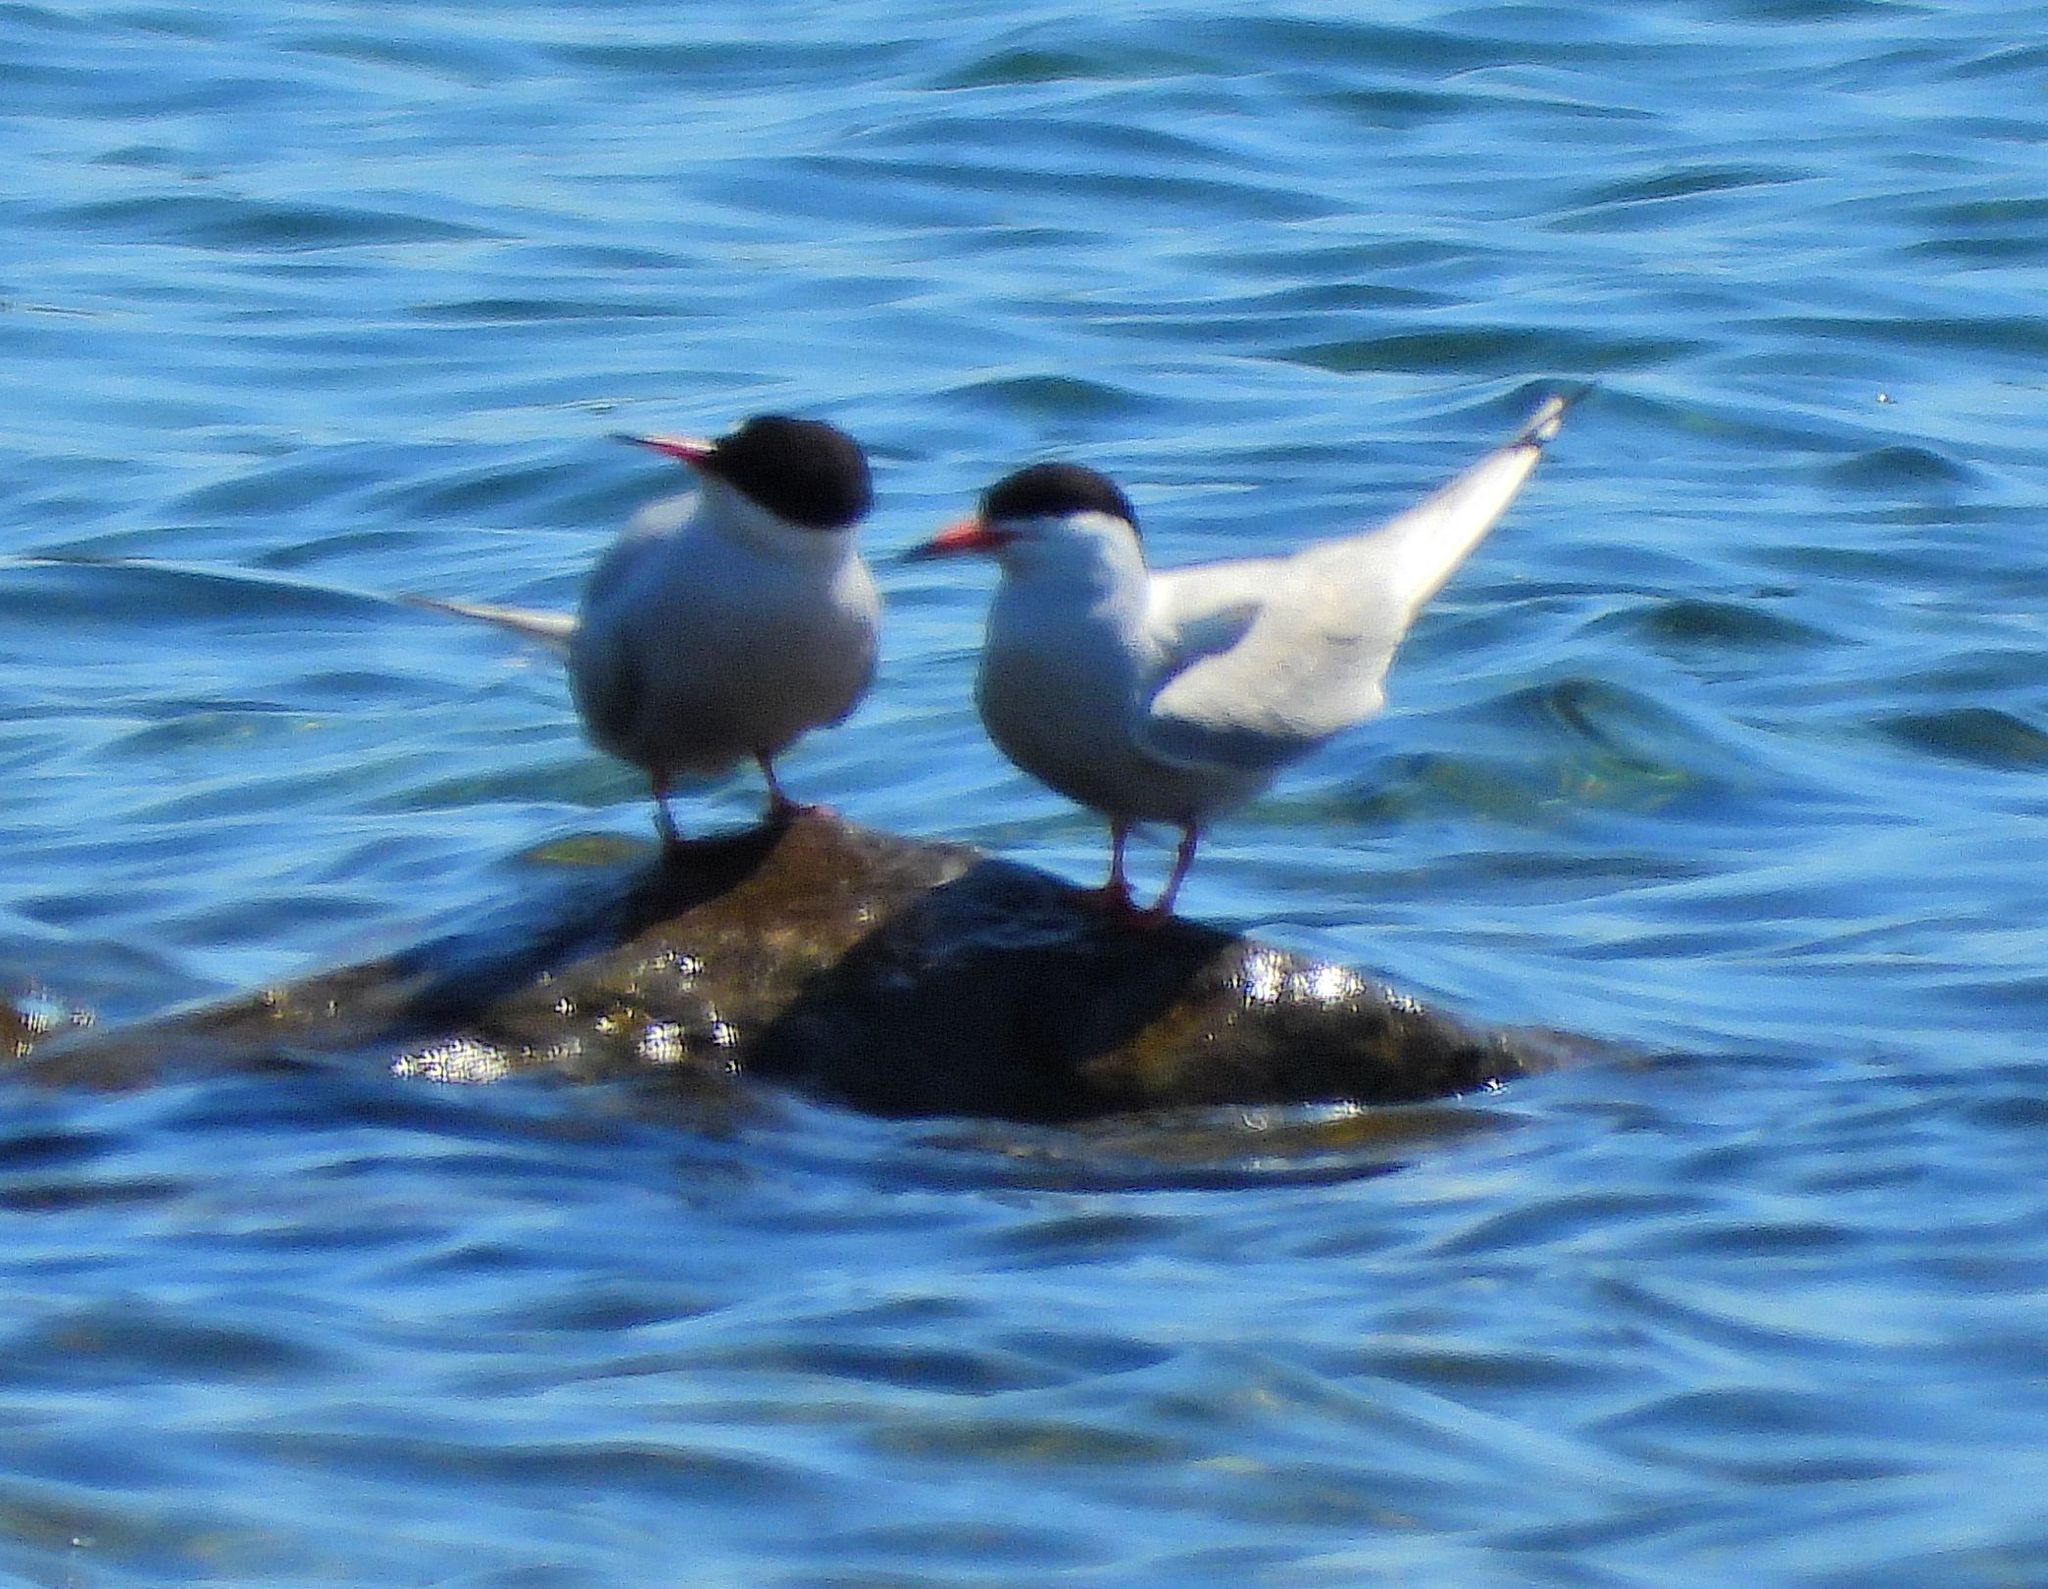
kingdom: Animalia
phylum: Chordata
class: Aves
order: Charadriiformes
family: Laridae
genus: Sterna
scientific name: Sterna hirundo
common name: Common tern
